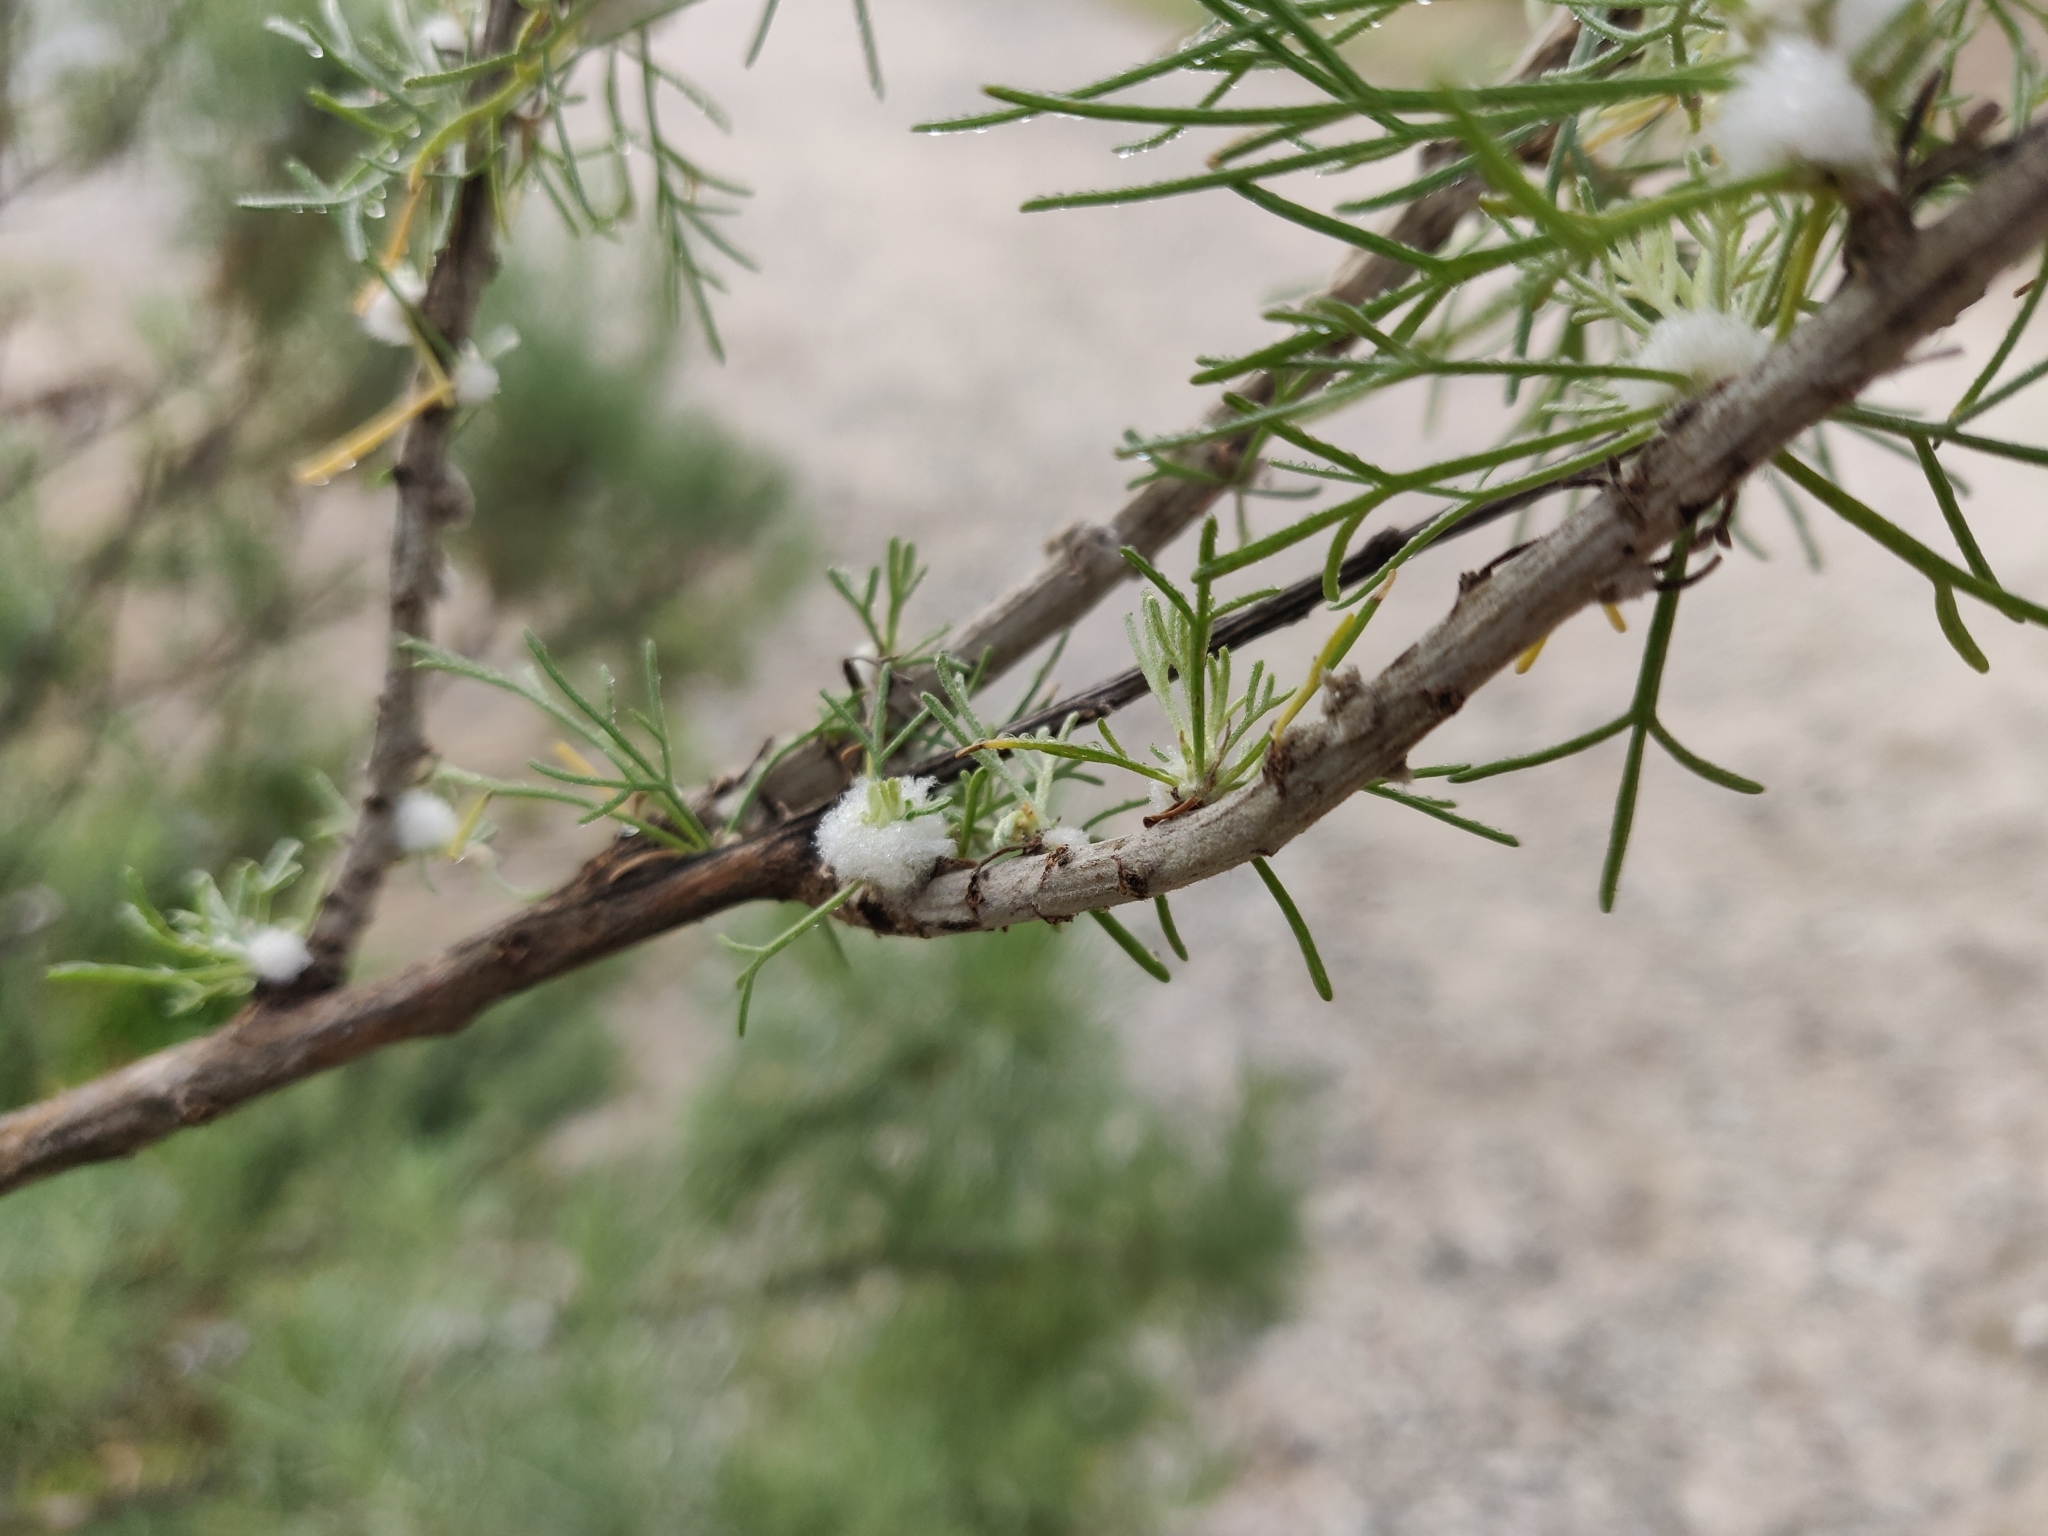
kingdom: Animalia
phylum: Arthropoda
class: Insecta
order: Diptera
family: Cecidomyiidae
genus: Rhopalomyia
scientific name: Rhopalomyia floccosa
